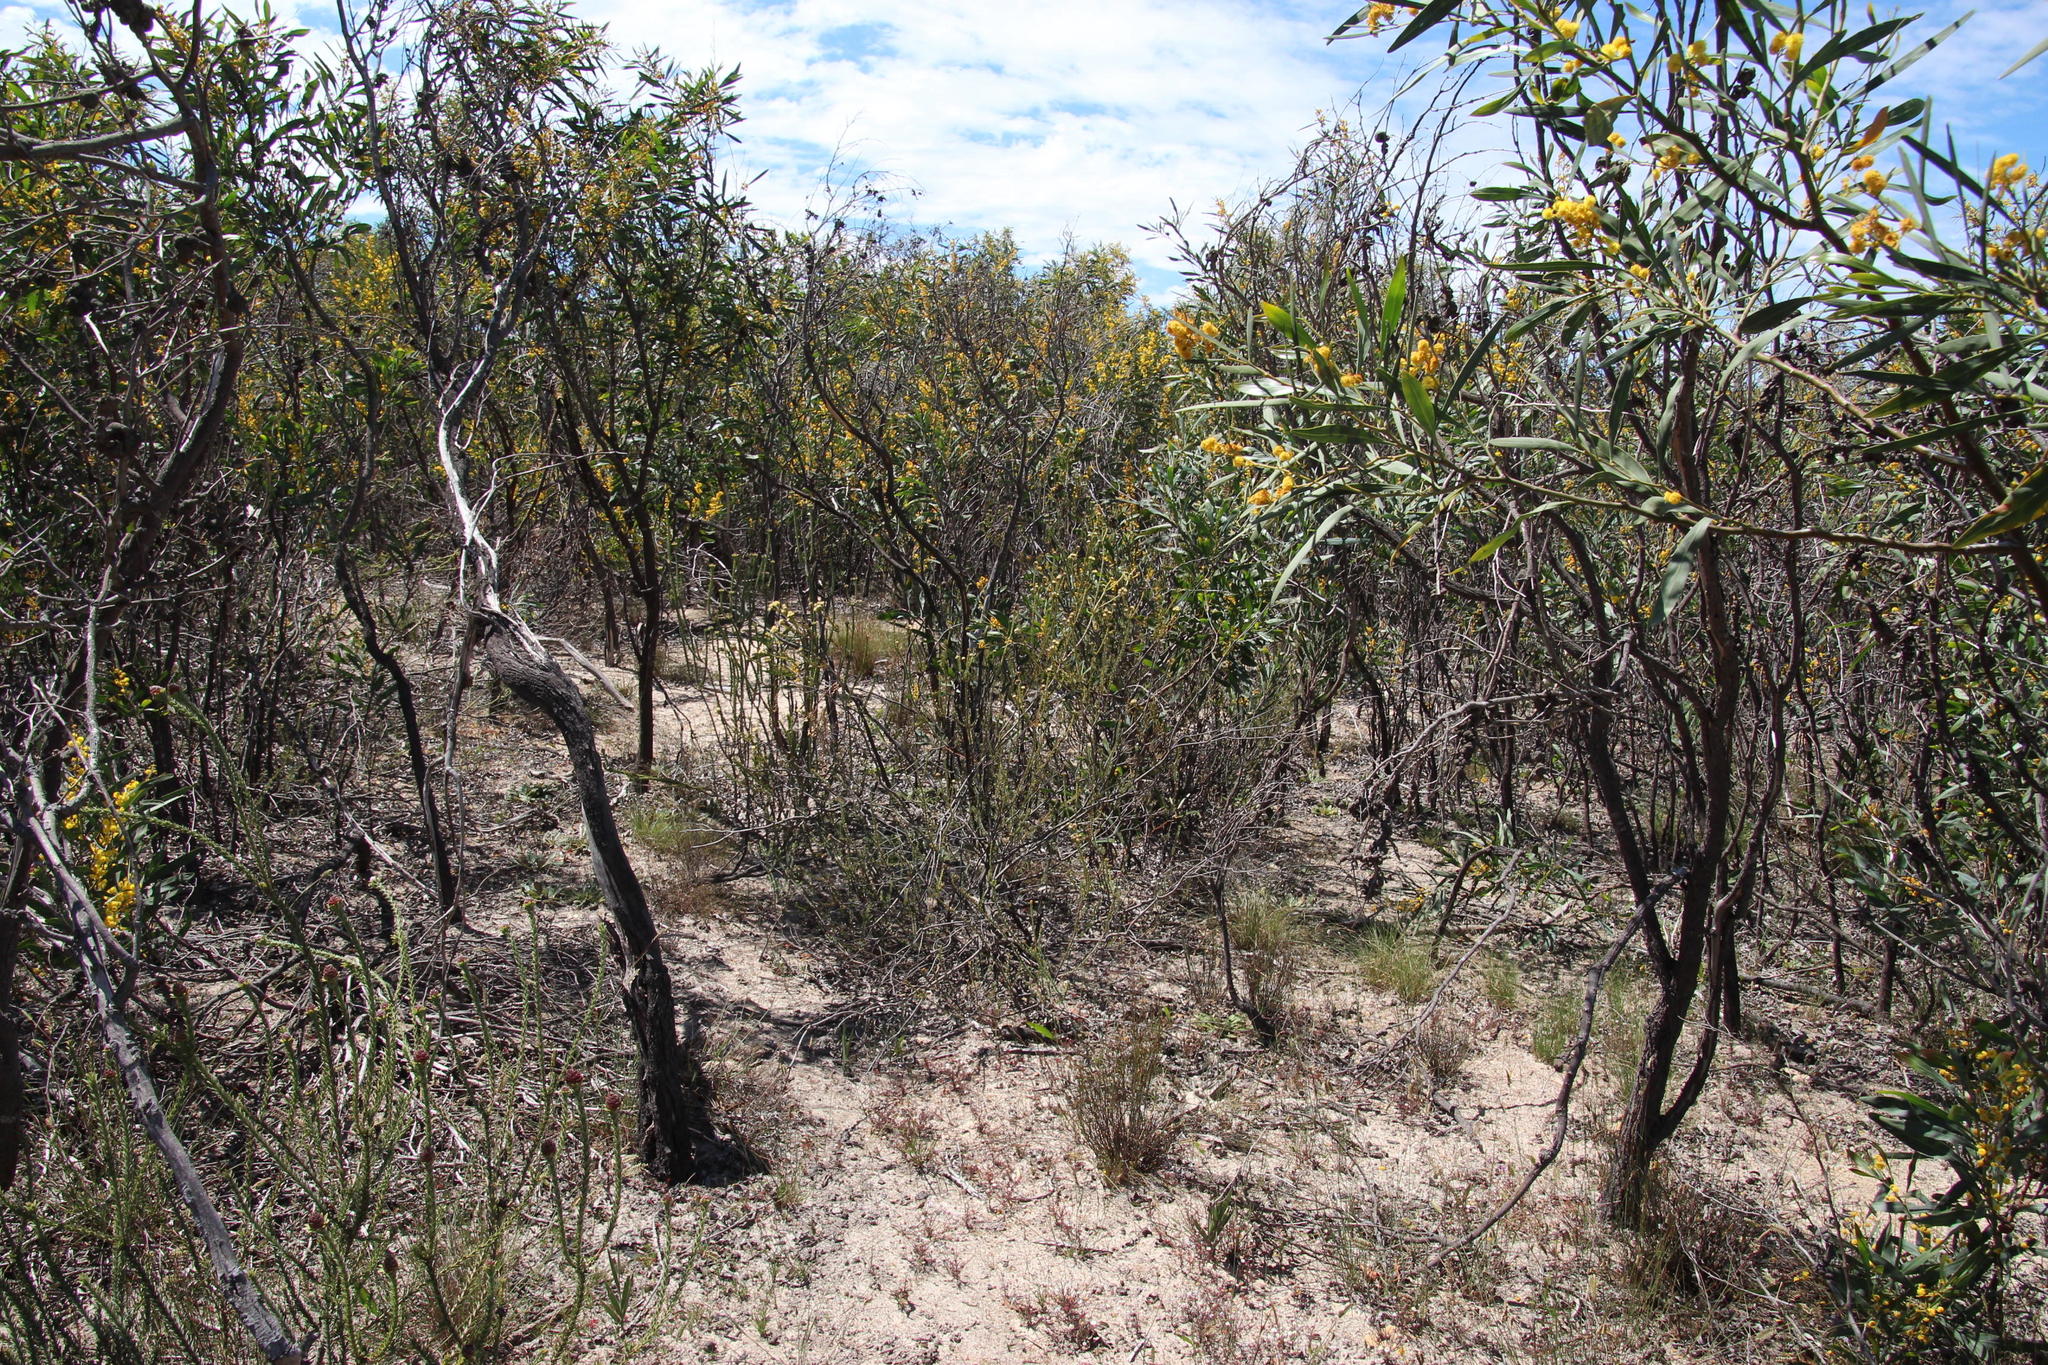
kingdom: Plantae
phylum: Tracheophyta
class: Magnoliopsida
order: Fabales
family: Fabaceae
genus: Acacia
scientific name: Acacia saligna
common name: Orange wattle
